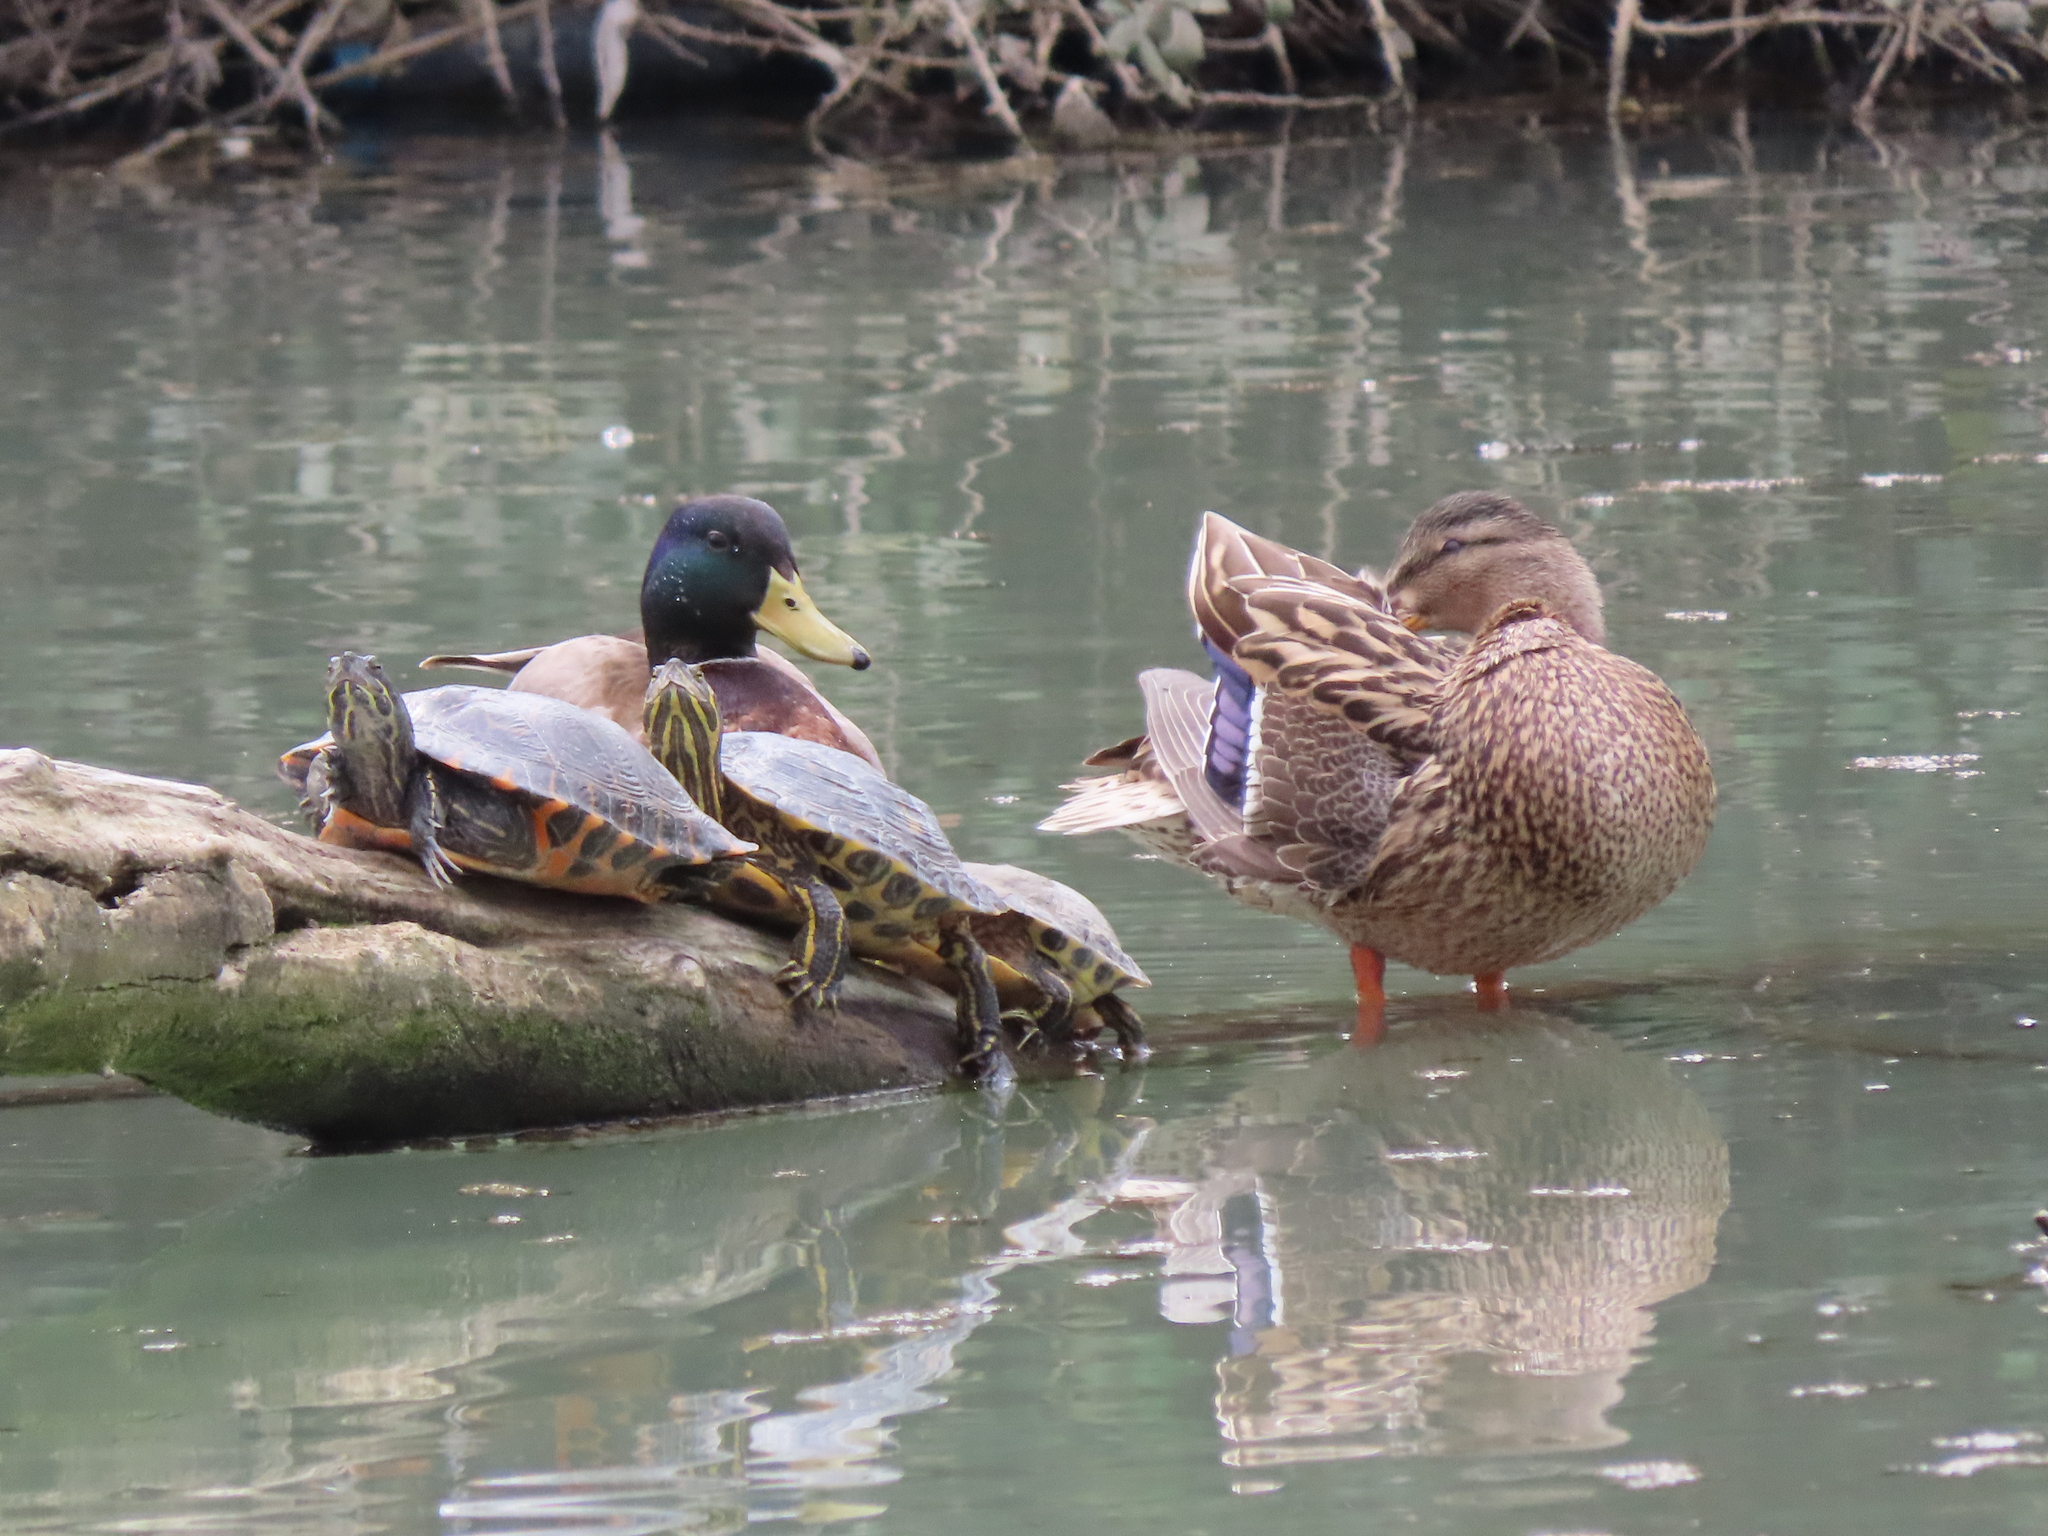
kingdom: Animalia
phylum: Chordata
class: Testudines
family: Emydidae
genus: Trachemys
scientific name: Trachemys scripta
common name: Slider
